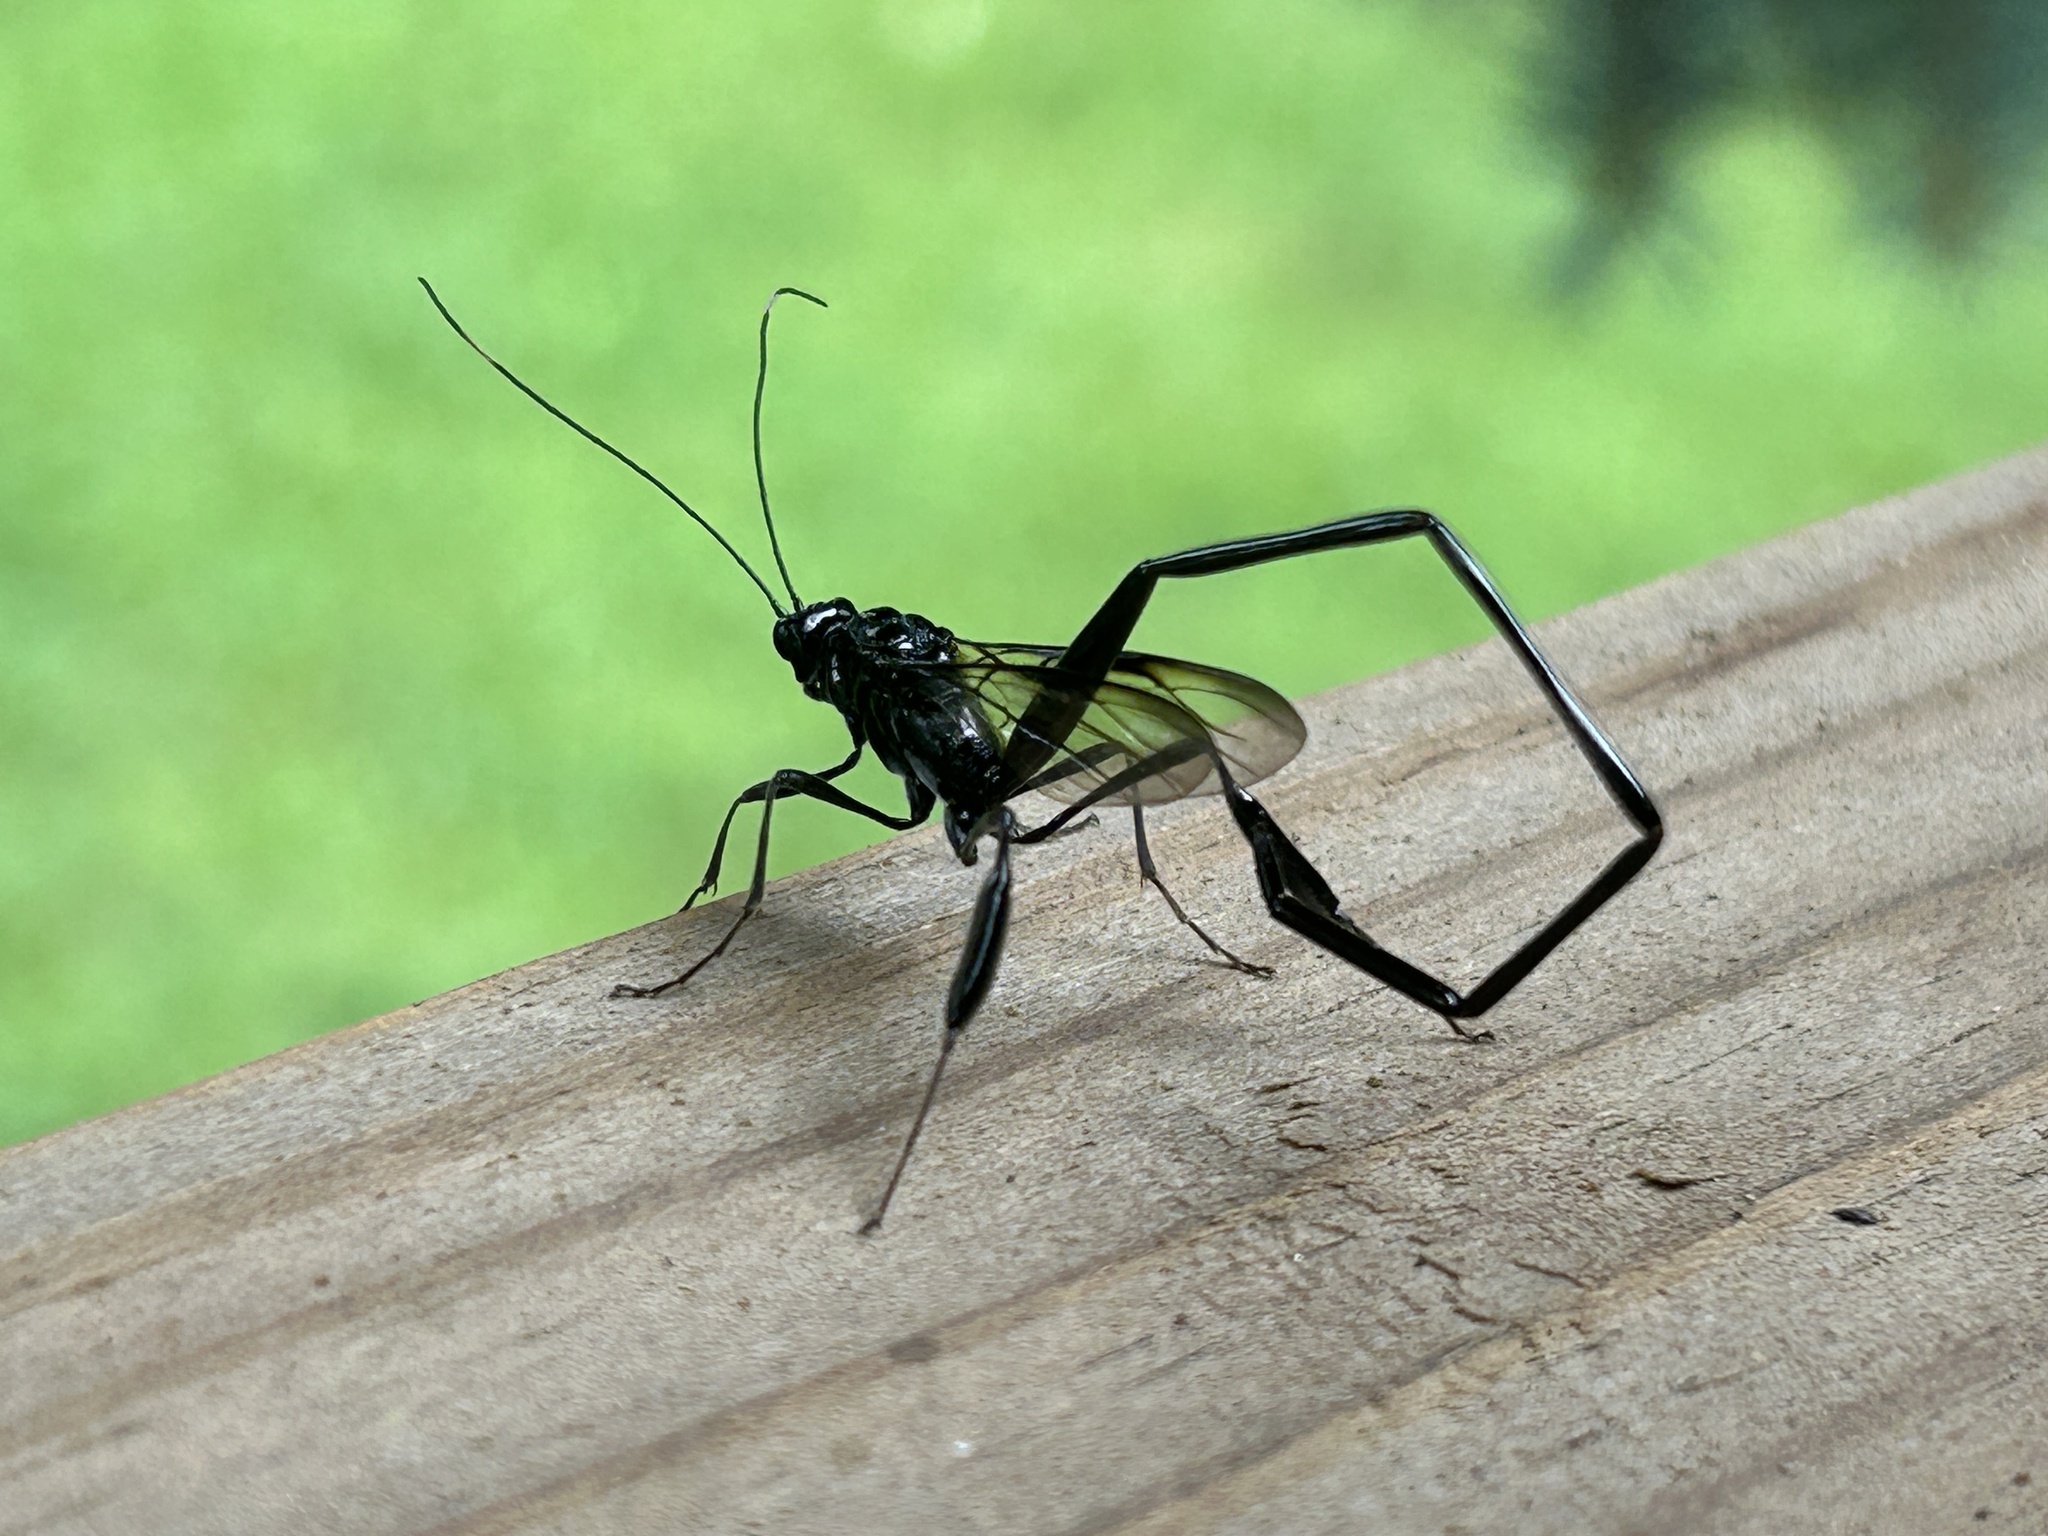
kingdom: Animalia
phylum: Arthropoda
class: Insecta
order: Hymenoptera
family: Pelecinidae
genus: Pelecinus
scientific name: Pelecinus polyturator
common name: American pelecinid wasp
